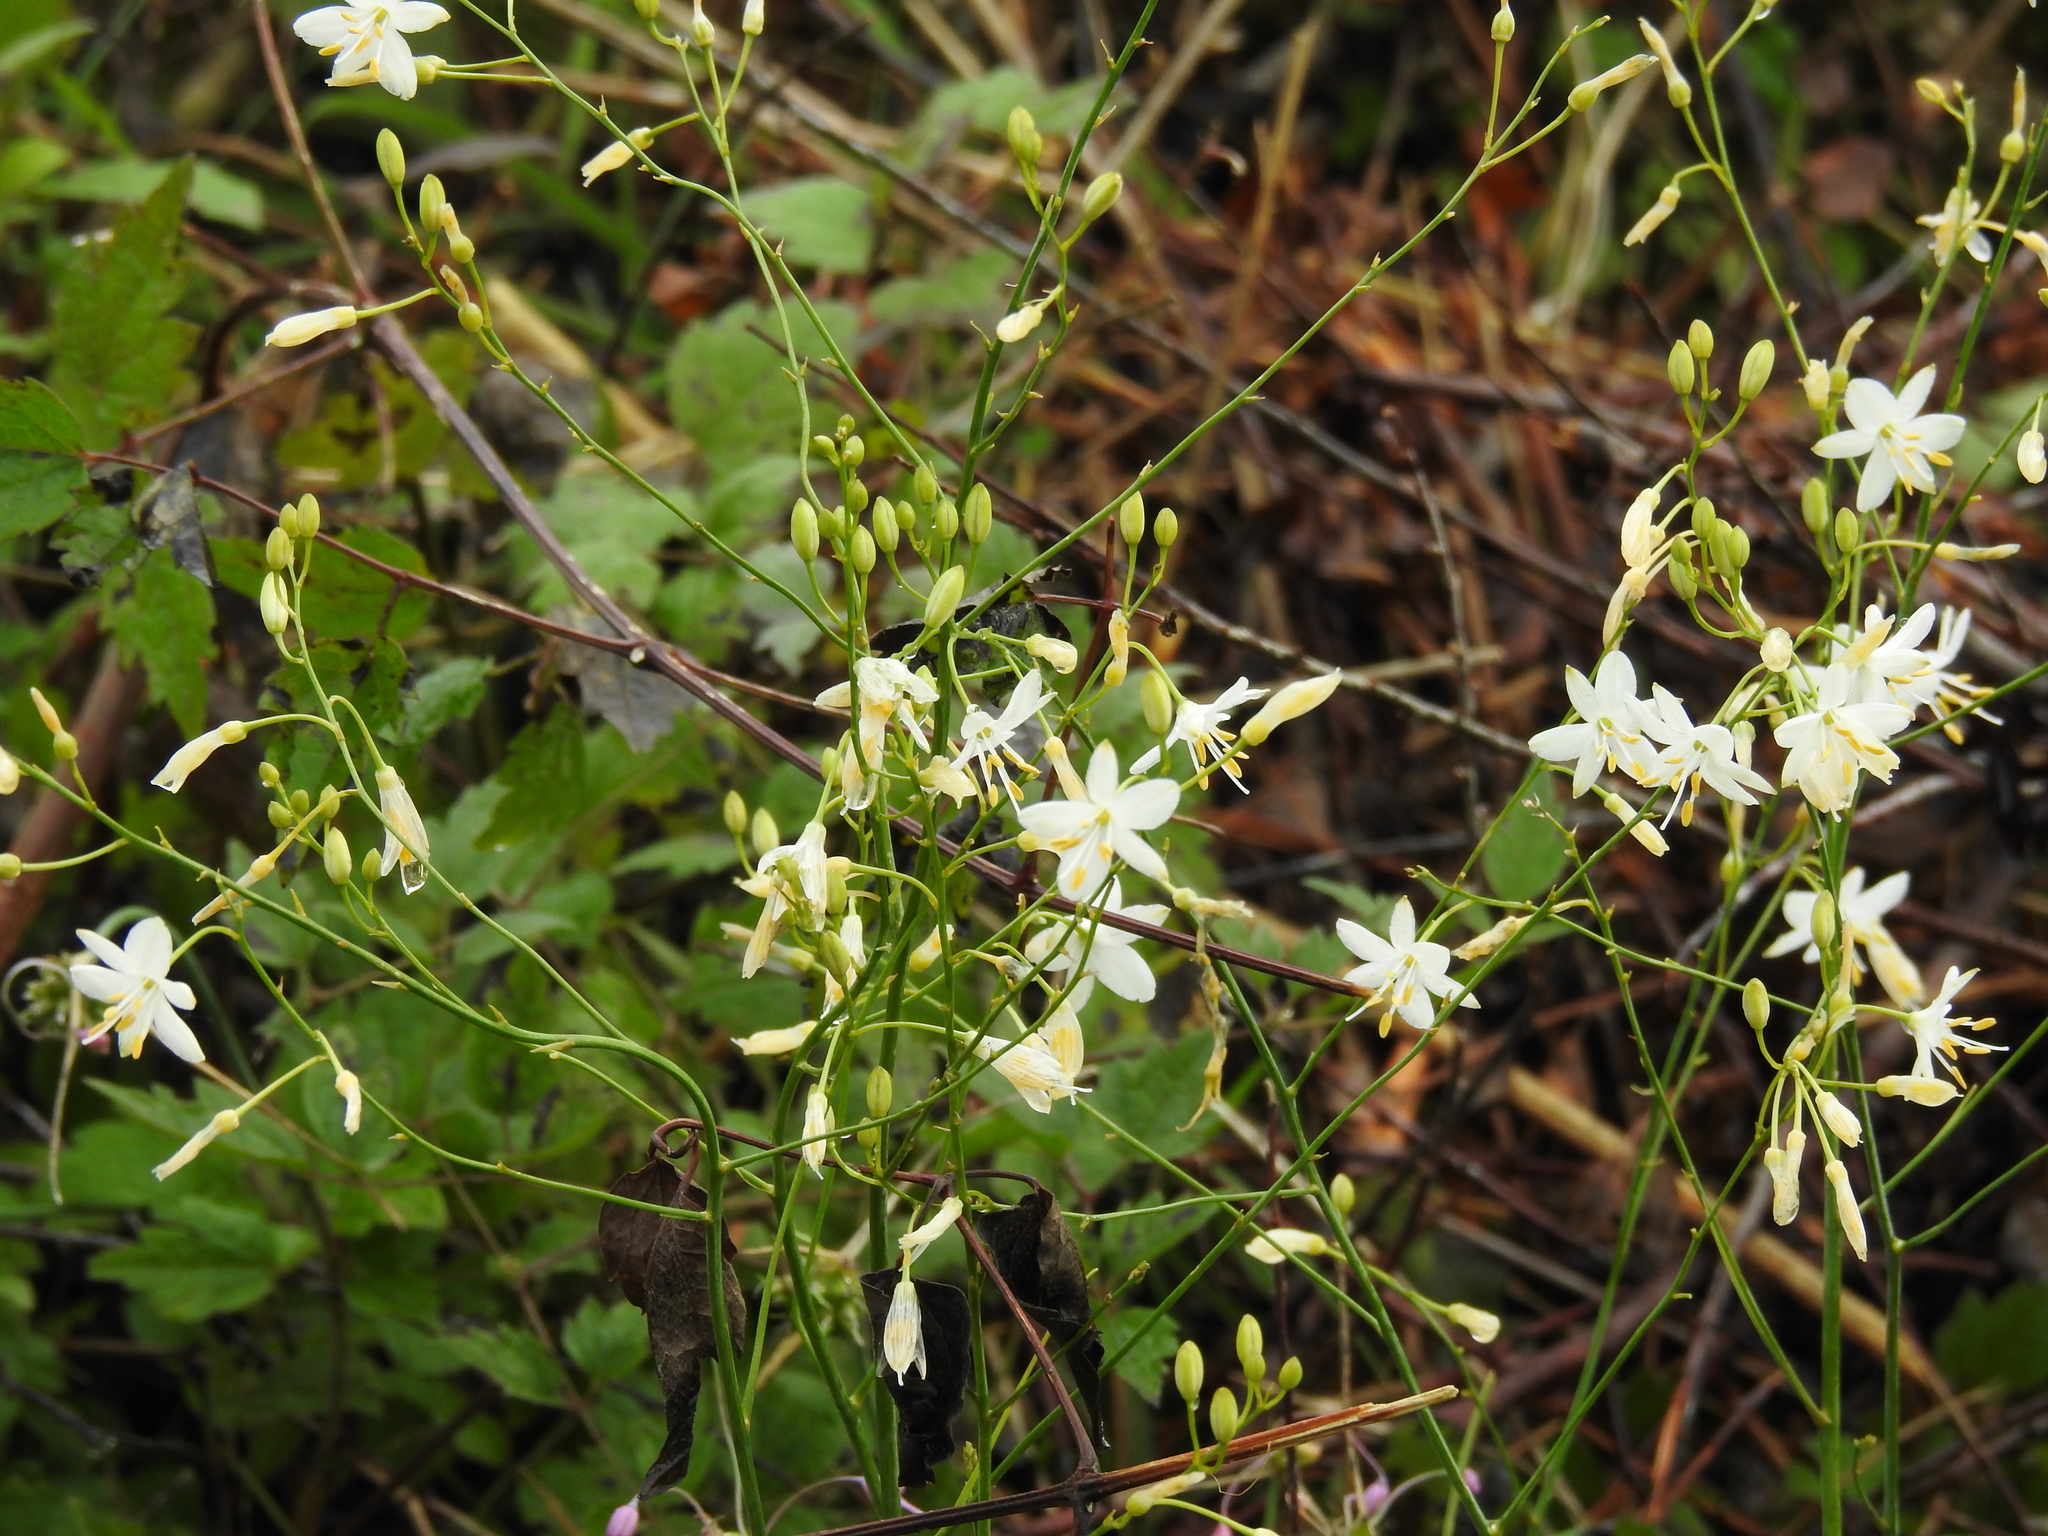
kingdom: Plantae
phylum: Tracheophyta
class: Liliopsida
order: Asparagales
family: Asparagaceae
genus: Anthericum
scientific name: Anthericum ramosum
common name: Branched st. bernard's-lily
